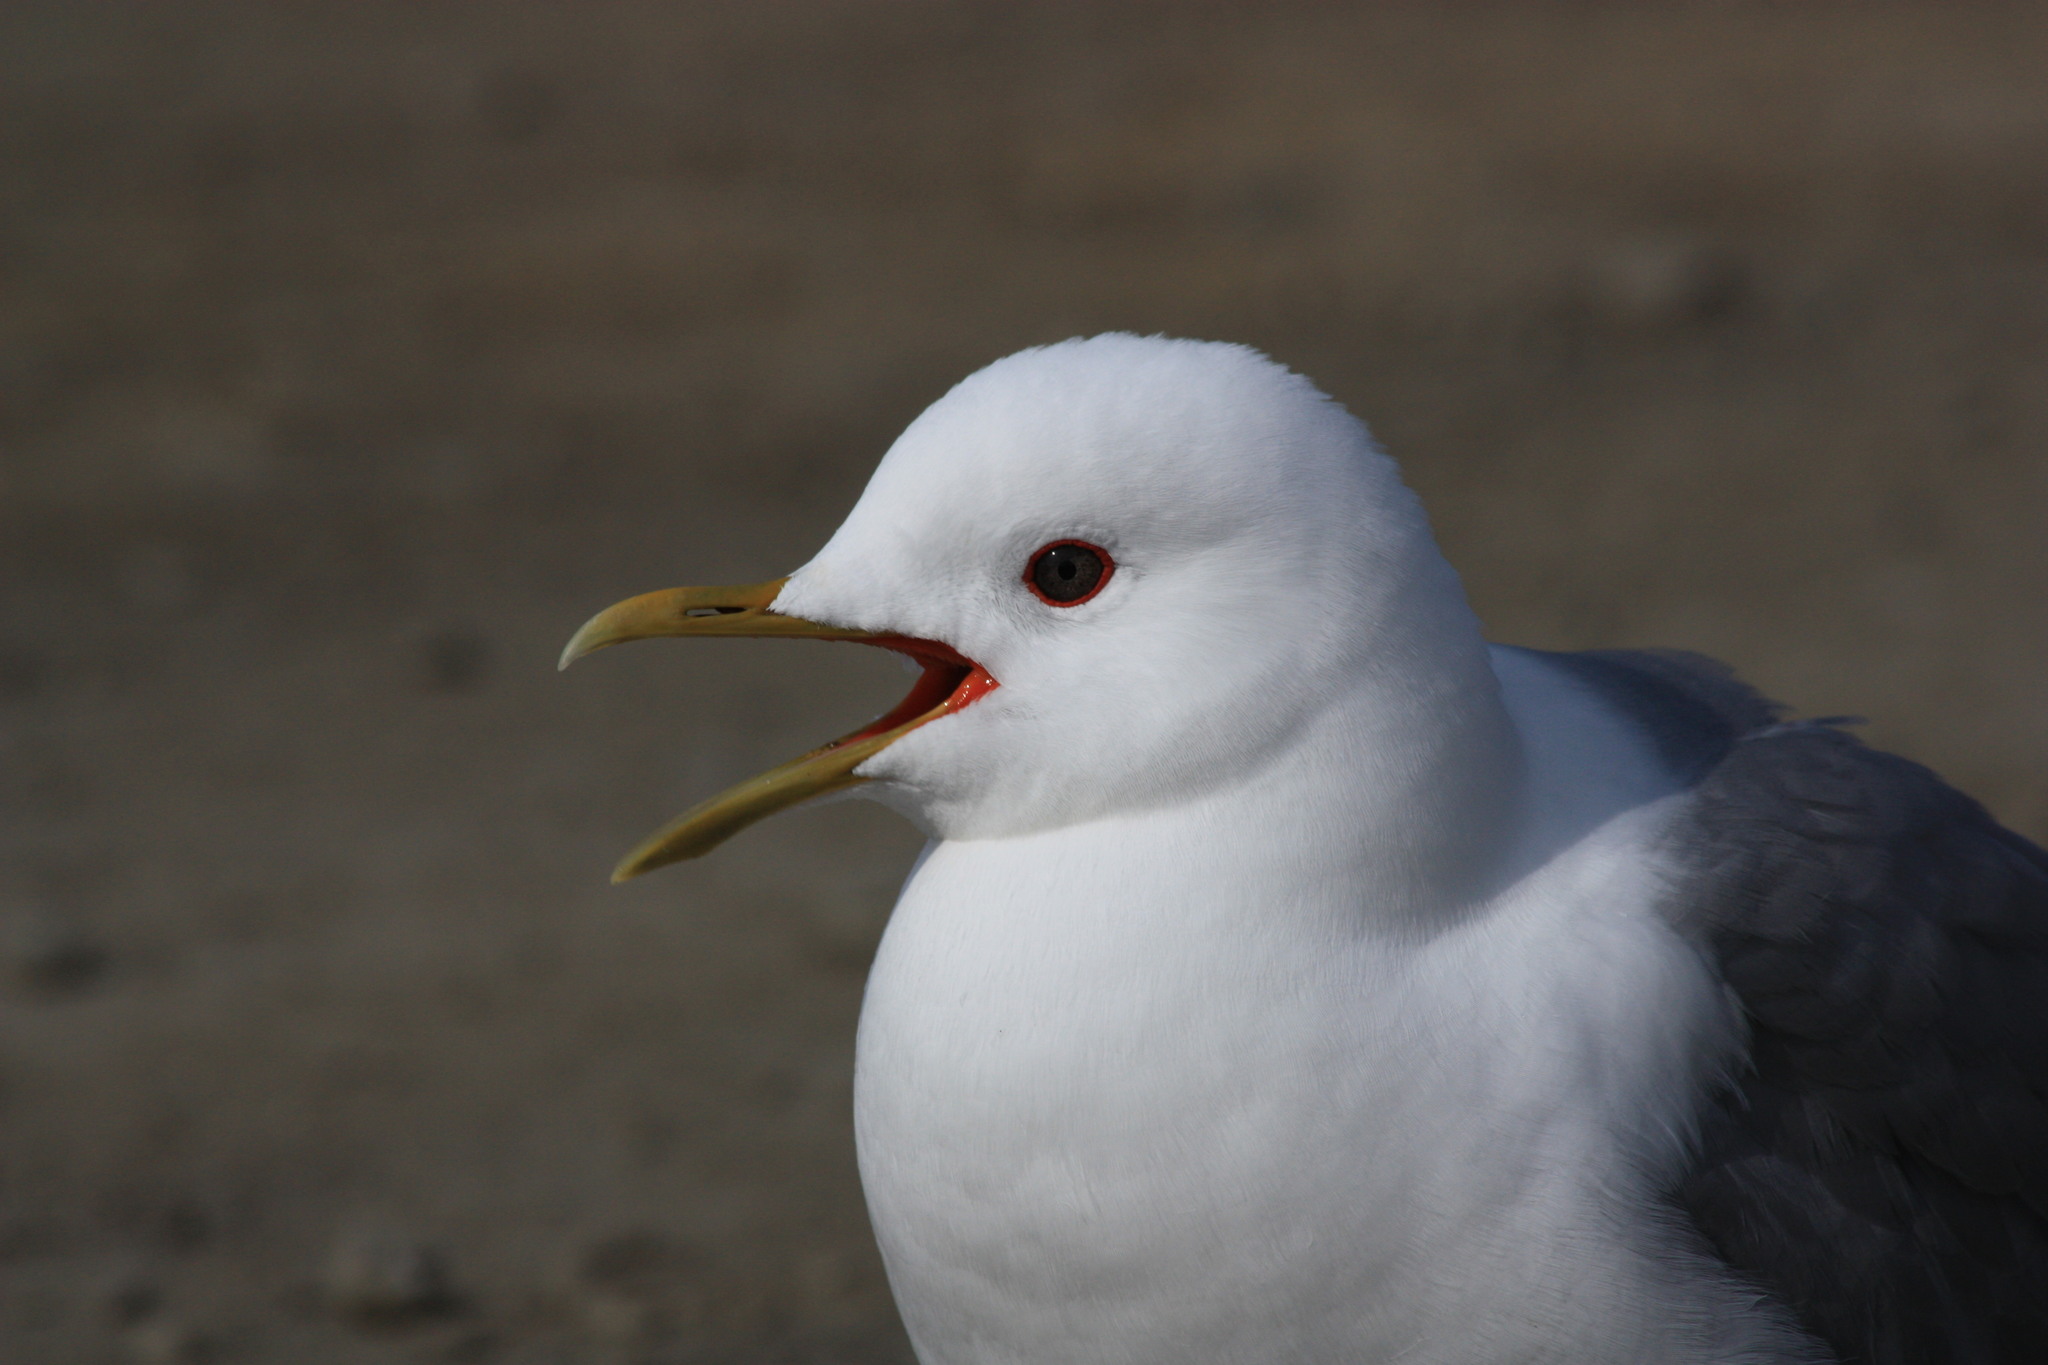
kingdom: Animalia
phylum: Chordata
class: Aves
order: Charadriiformes
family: Laridae
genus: Larus
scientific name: Larus brachyrhynchus
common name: Short-billed gull
